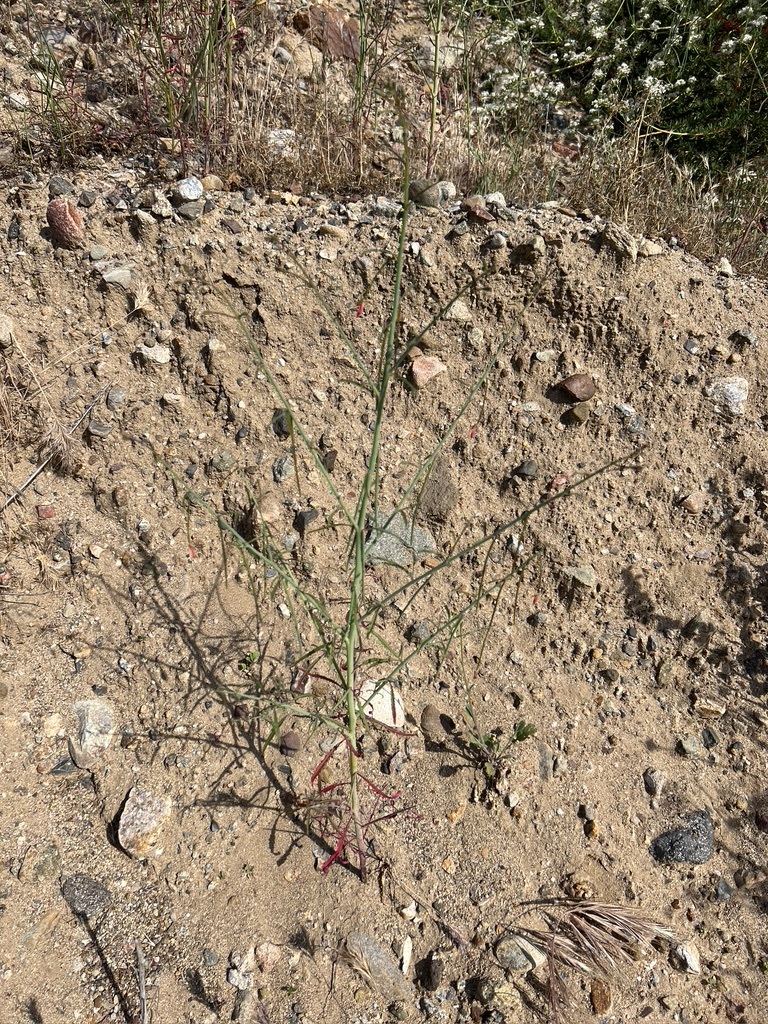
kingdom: Plantae
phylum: Tracheophyta
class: Magnoliopsida
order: Myrtales
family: Onagraceae
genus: Eulobus
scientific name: Eulobus californicus
